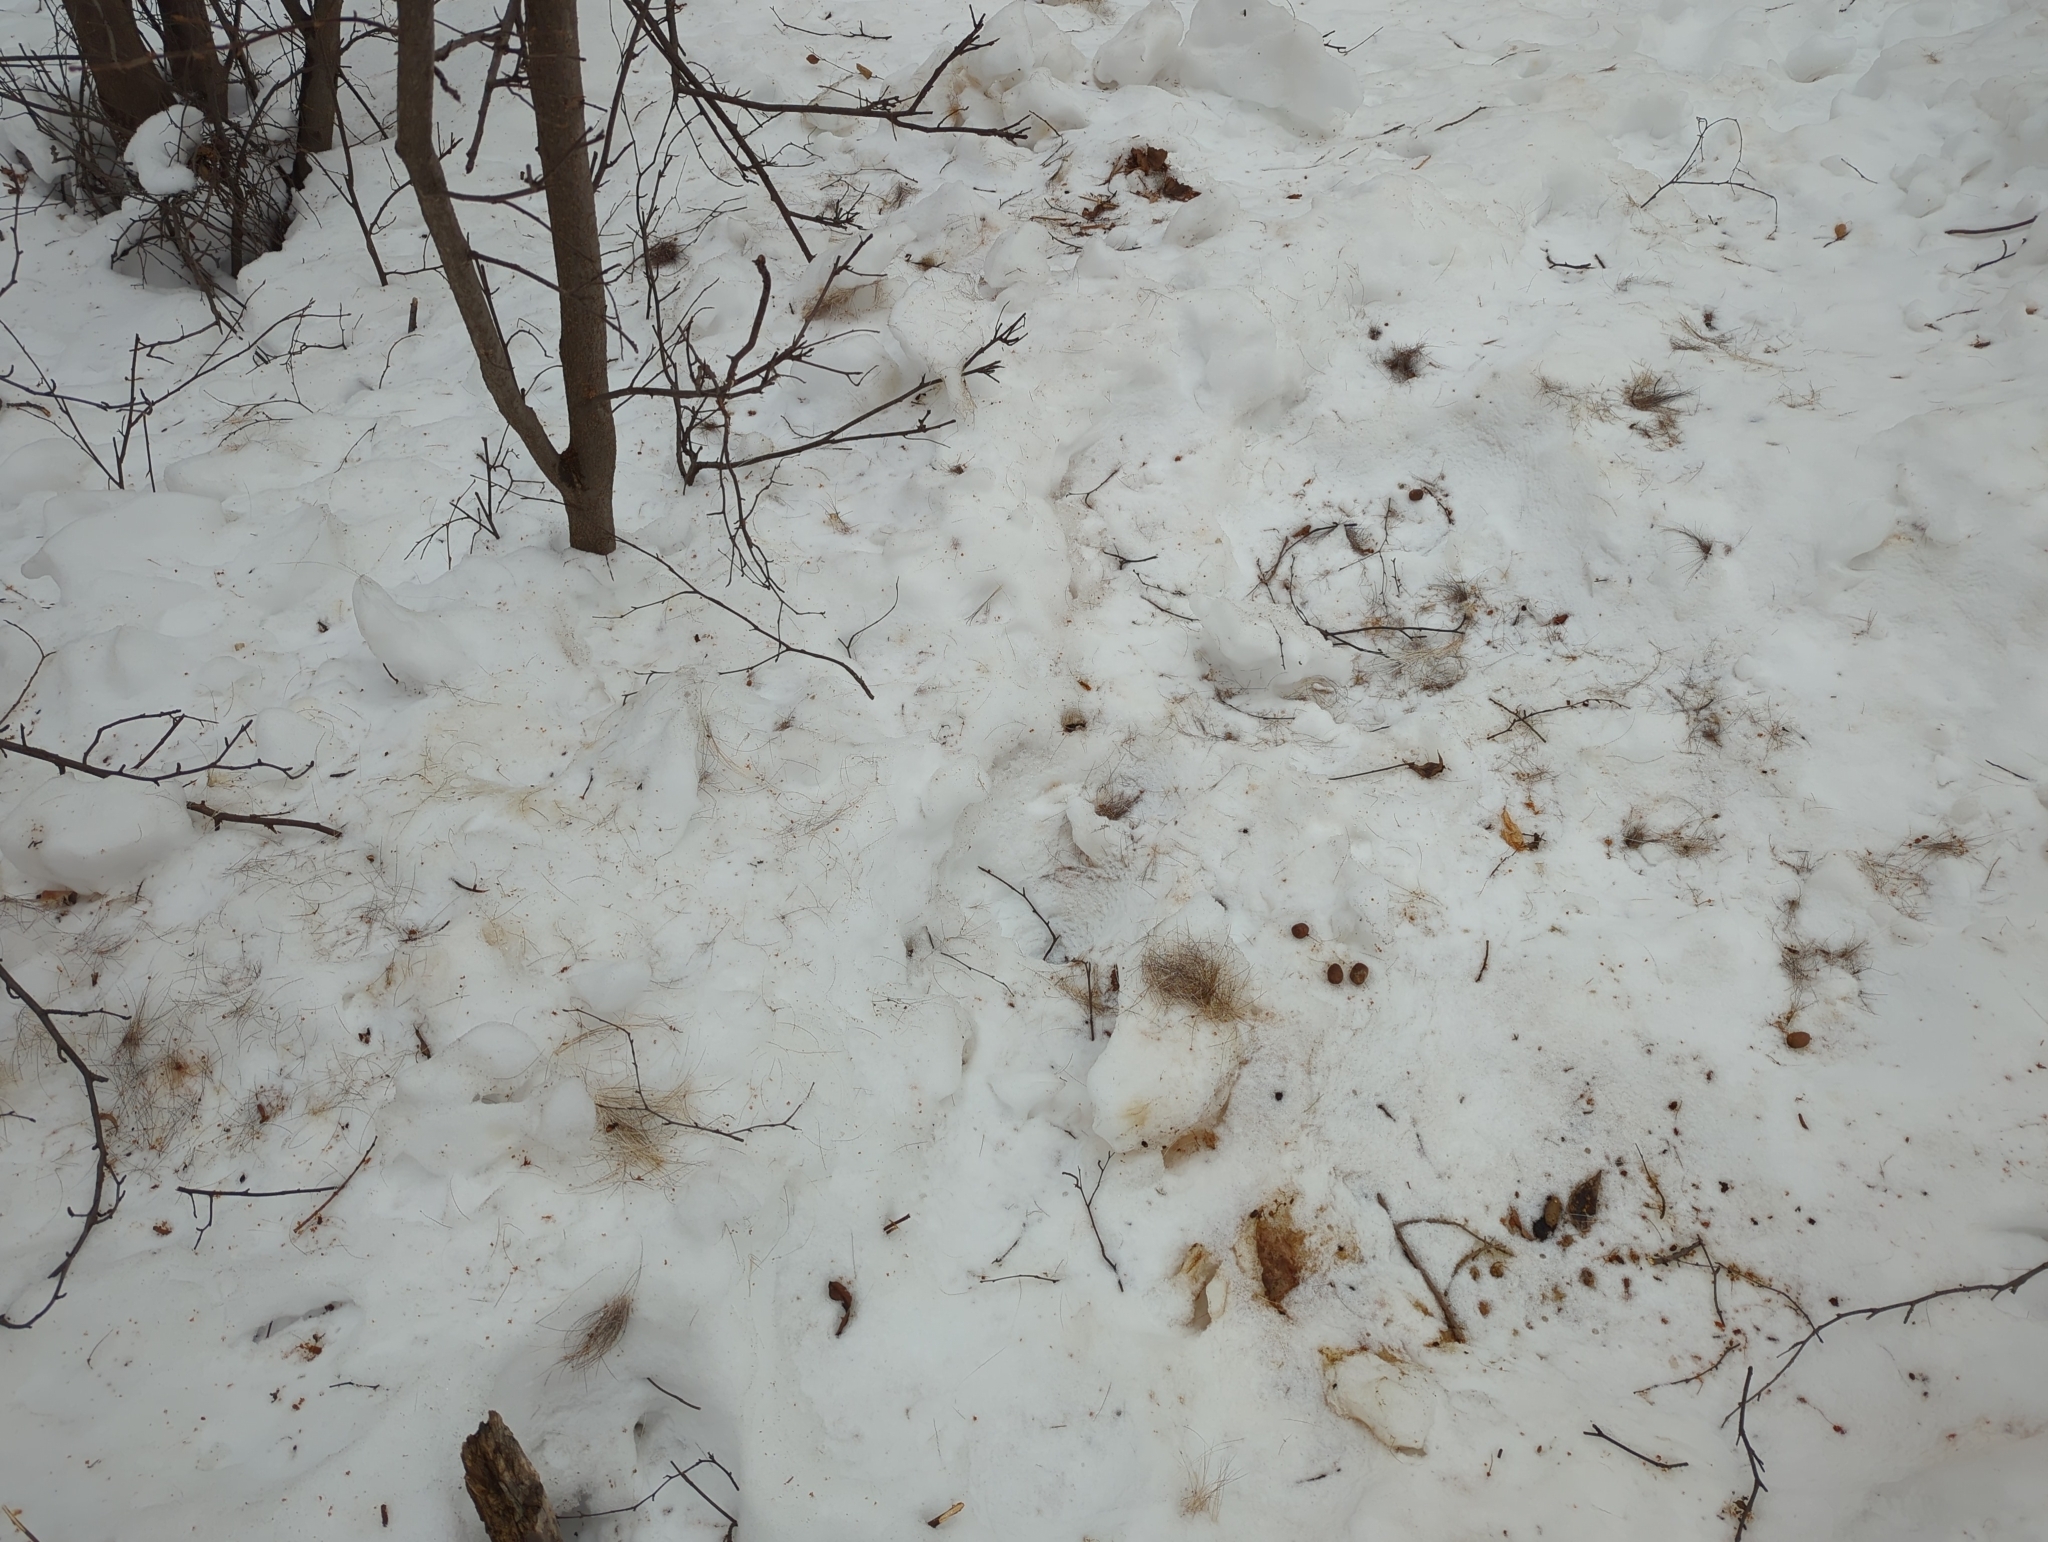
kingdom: Animalia
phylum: Chordata
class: Mammalia
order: Artiodactyla
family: Cervidae
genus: Alces
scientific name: Alces alces
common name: Moose
